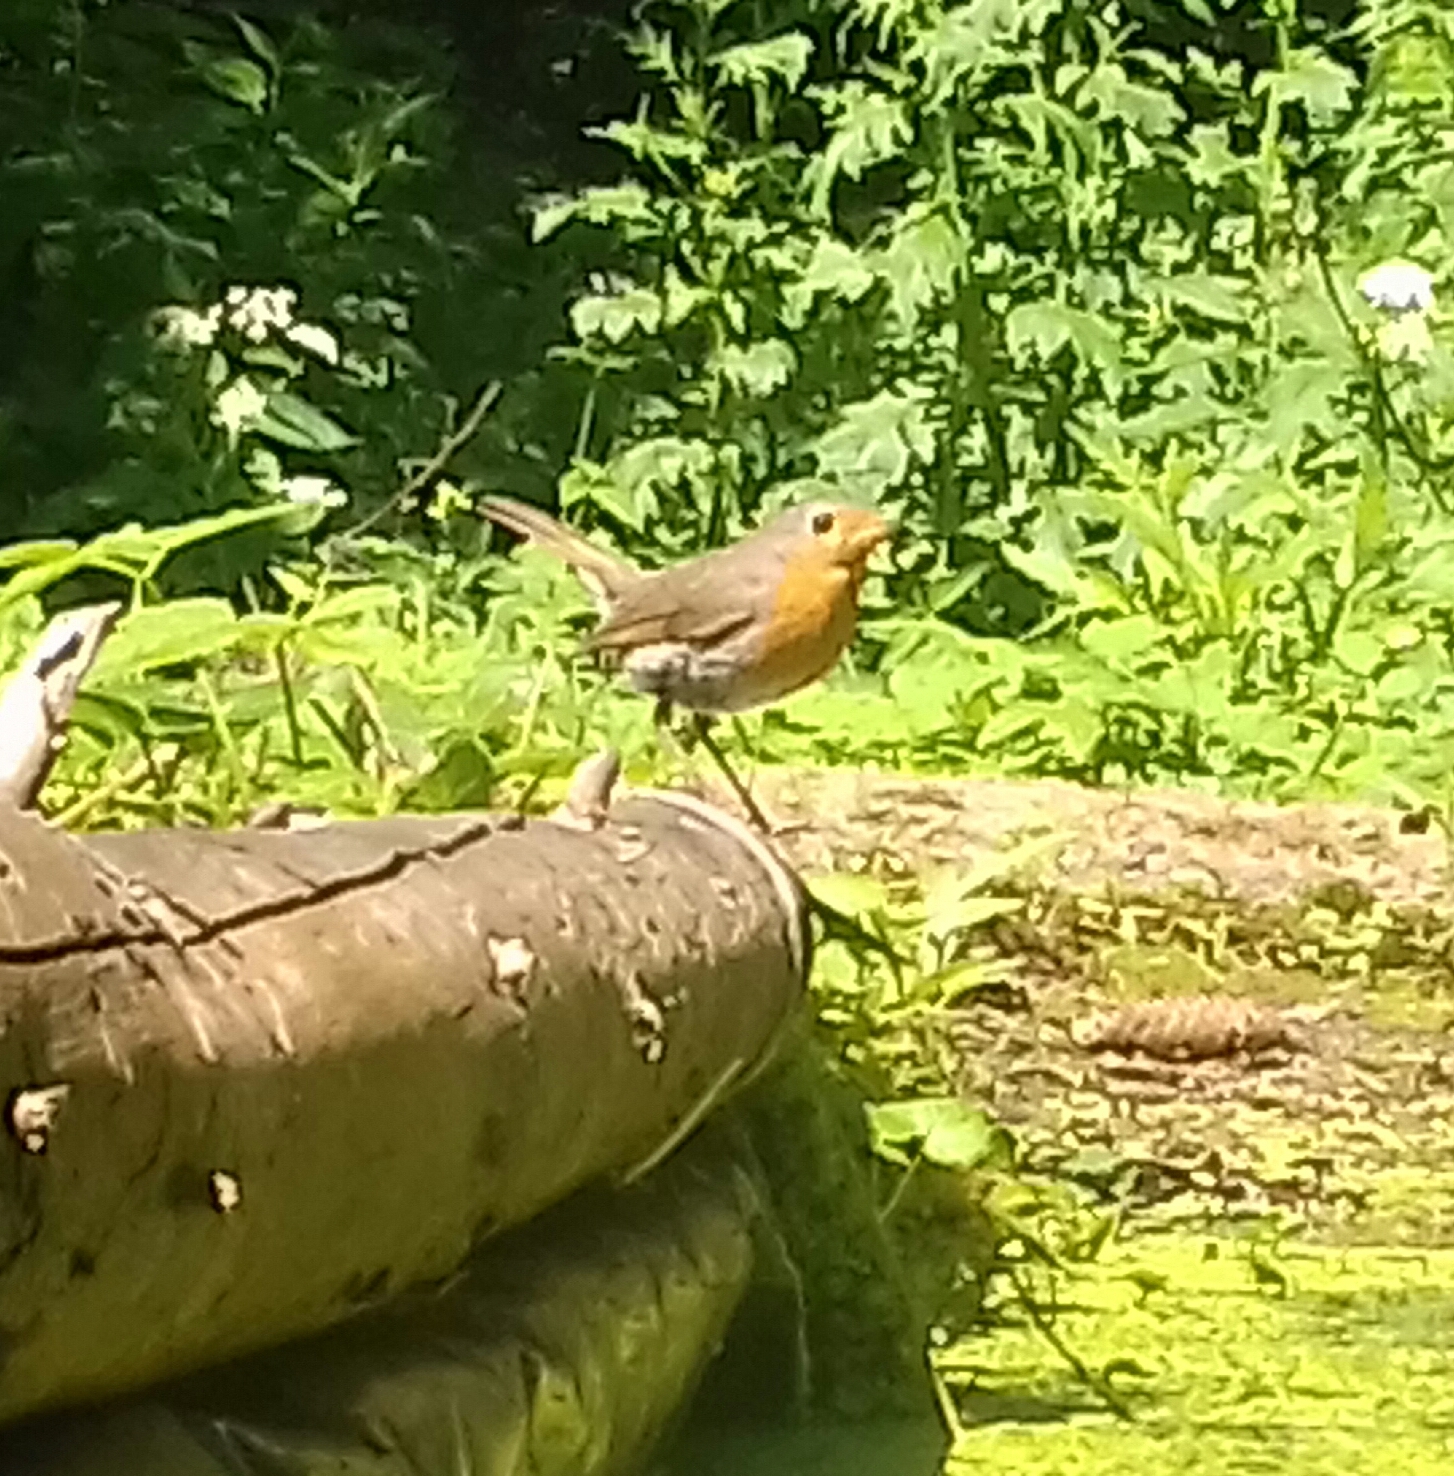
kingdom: Animalia
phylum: Chordata
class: Aves
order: Passeriformes
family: Muscicapidae
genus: Erithacus
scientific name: Erithacus rubecula
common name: European robin
